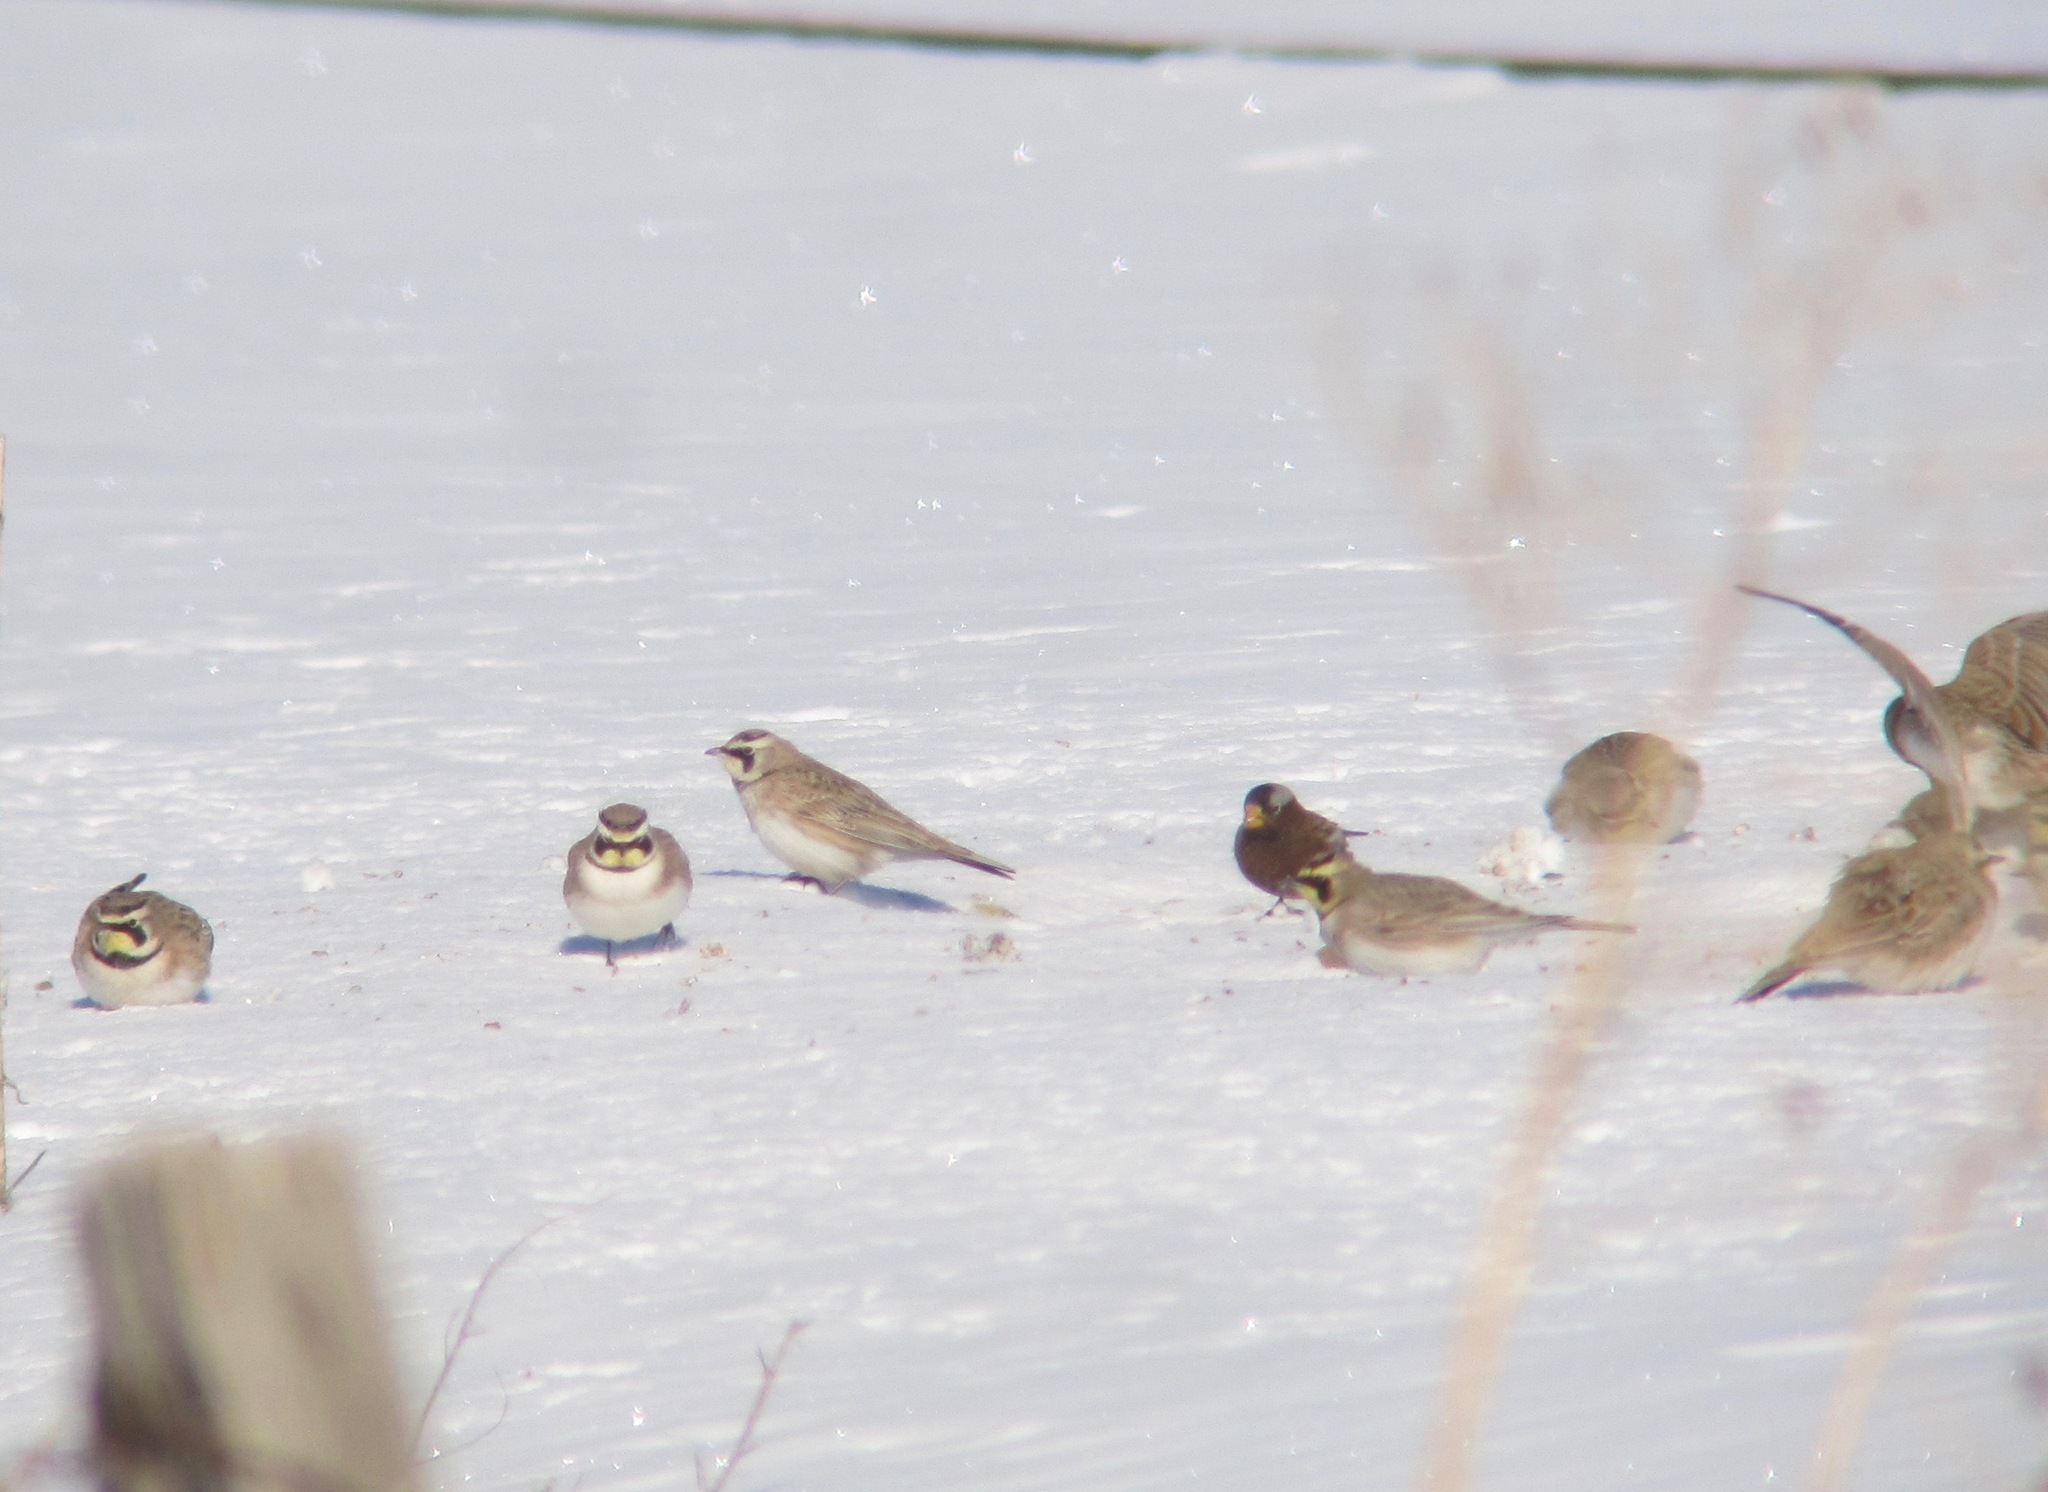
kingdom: Animalia
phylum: Chordata
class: Aves
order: Passeriformes
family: Fringillidae
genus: Leucosticte
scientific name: Leucosticte tephrocotis
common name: Gray-crowned rosy-finch
